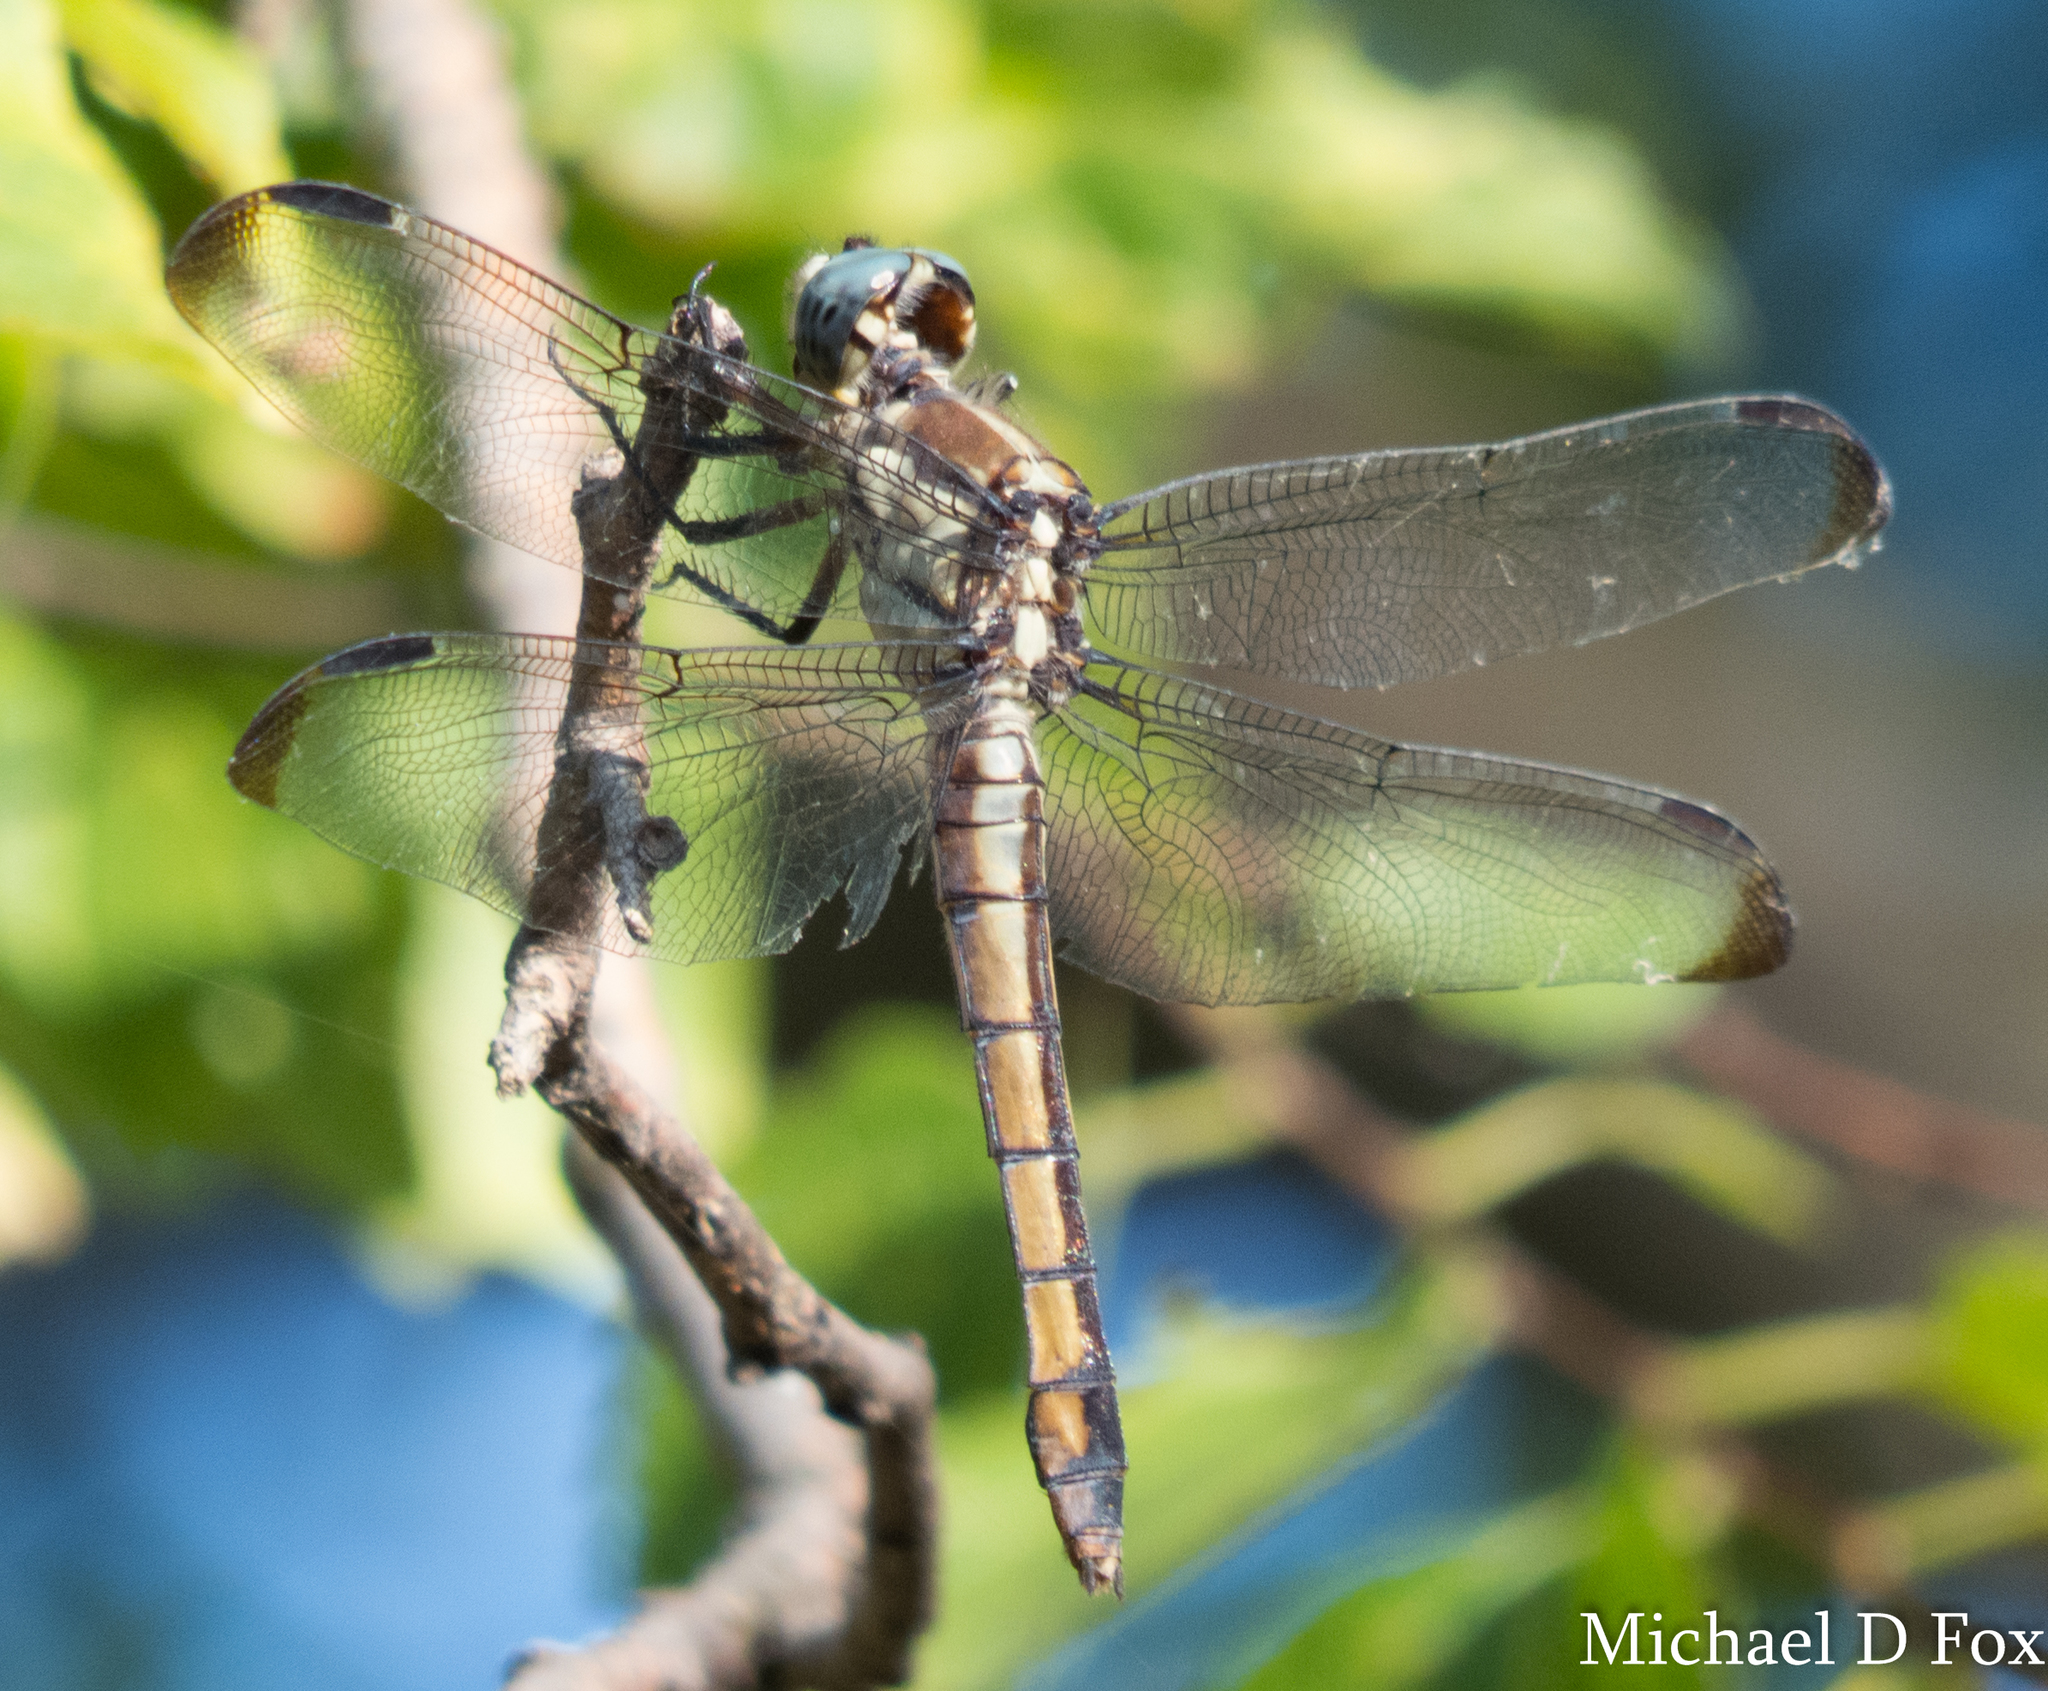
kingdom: Animalia
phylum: Arthropoda
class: Insecta
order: Odonata
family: Libellulidae
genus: Libellula
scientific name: Libellula vibrans
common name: Great blue skimmer
